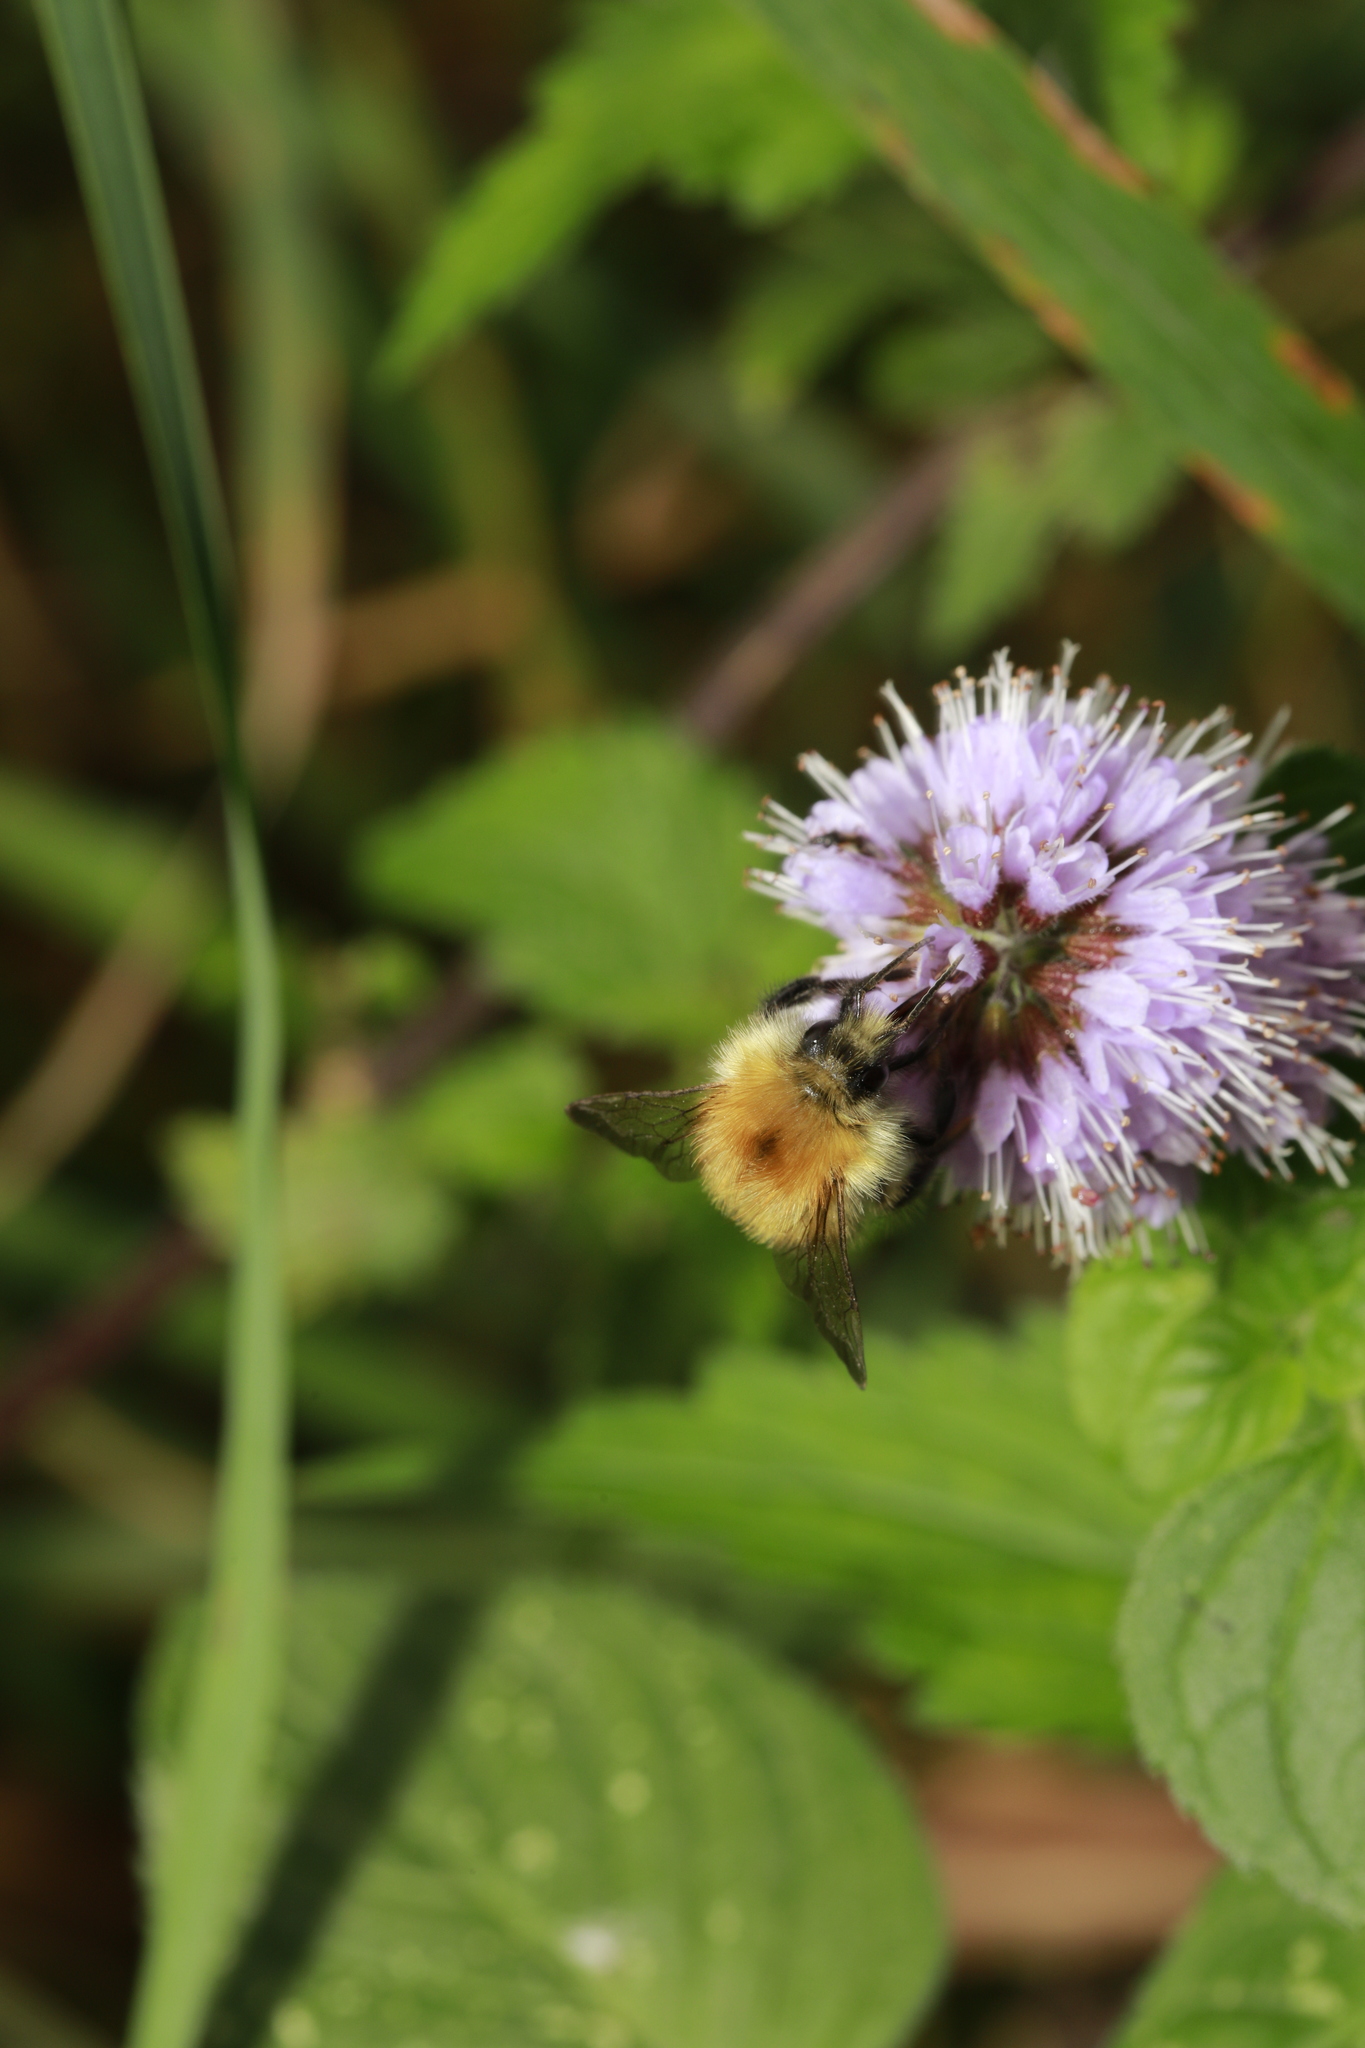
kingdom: Animalia
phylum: Arthropoda
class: Insecta
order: Hymenoptera
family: Apidae
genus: Bombus
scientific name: Bombus pascuorum
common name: Common carder bee
